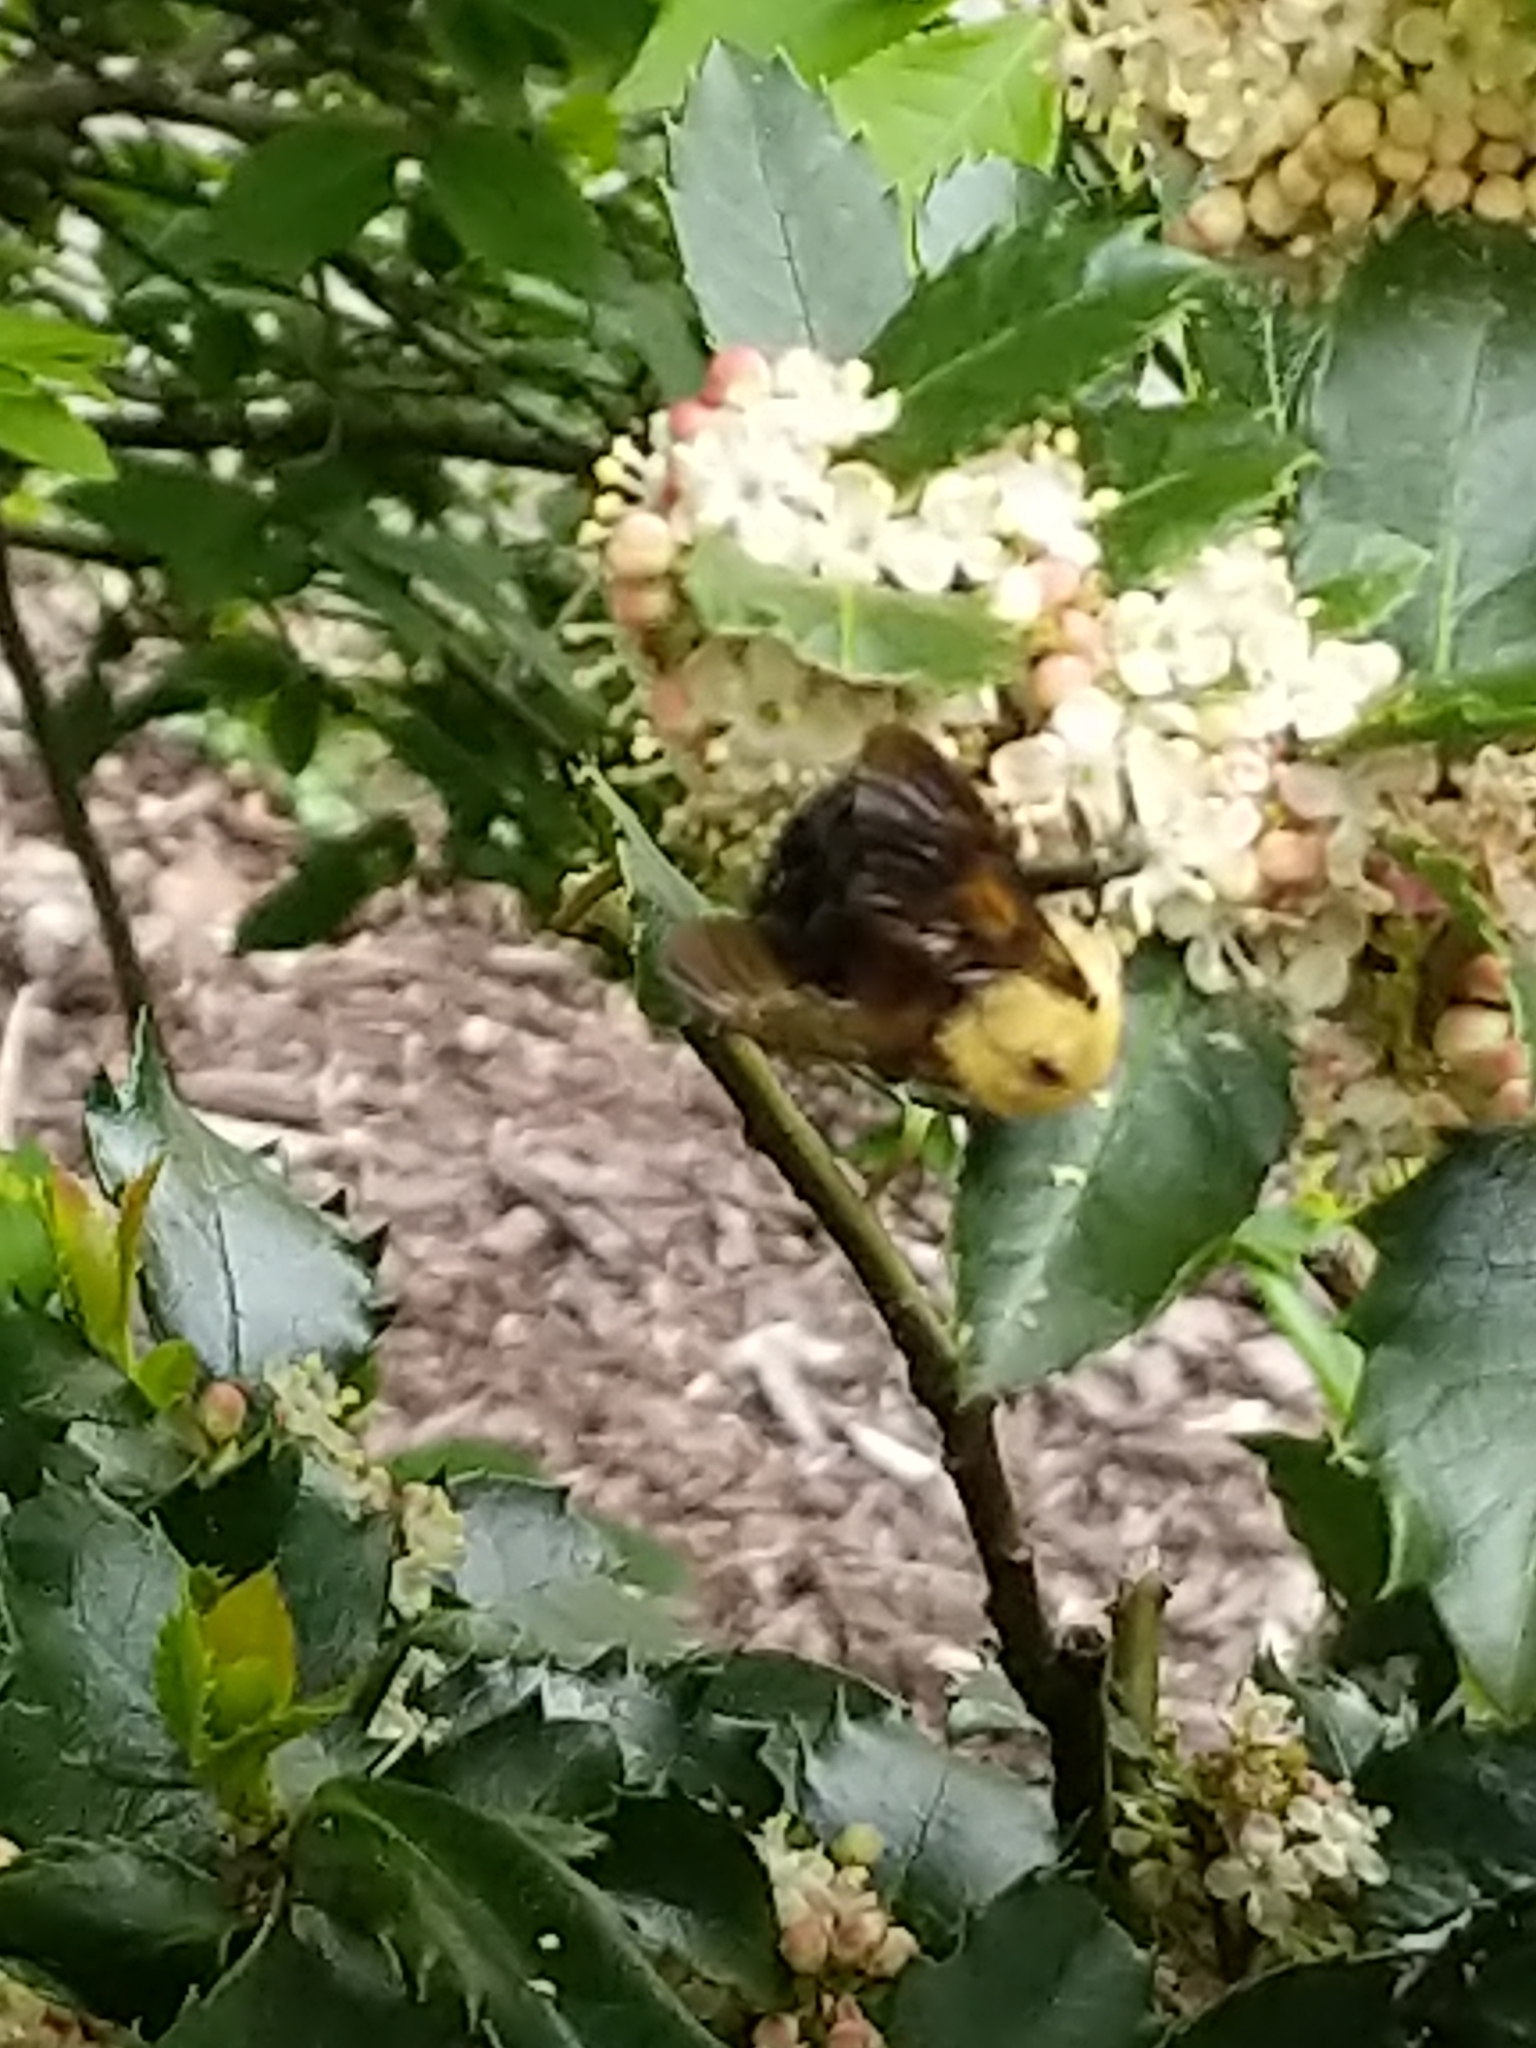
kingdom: Animalia
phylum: Arthropoda
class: Insecta
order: Hymenoptera
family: Apidae
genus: Bombus
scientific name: Bombus griseocollis
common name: Brown-belted bumble bee
